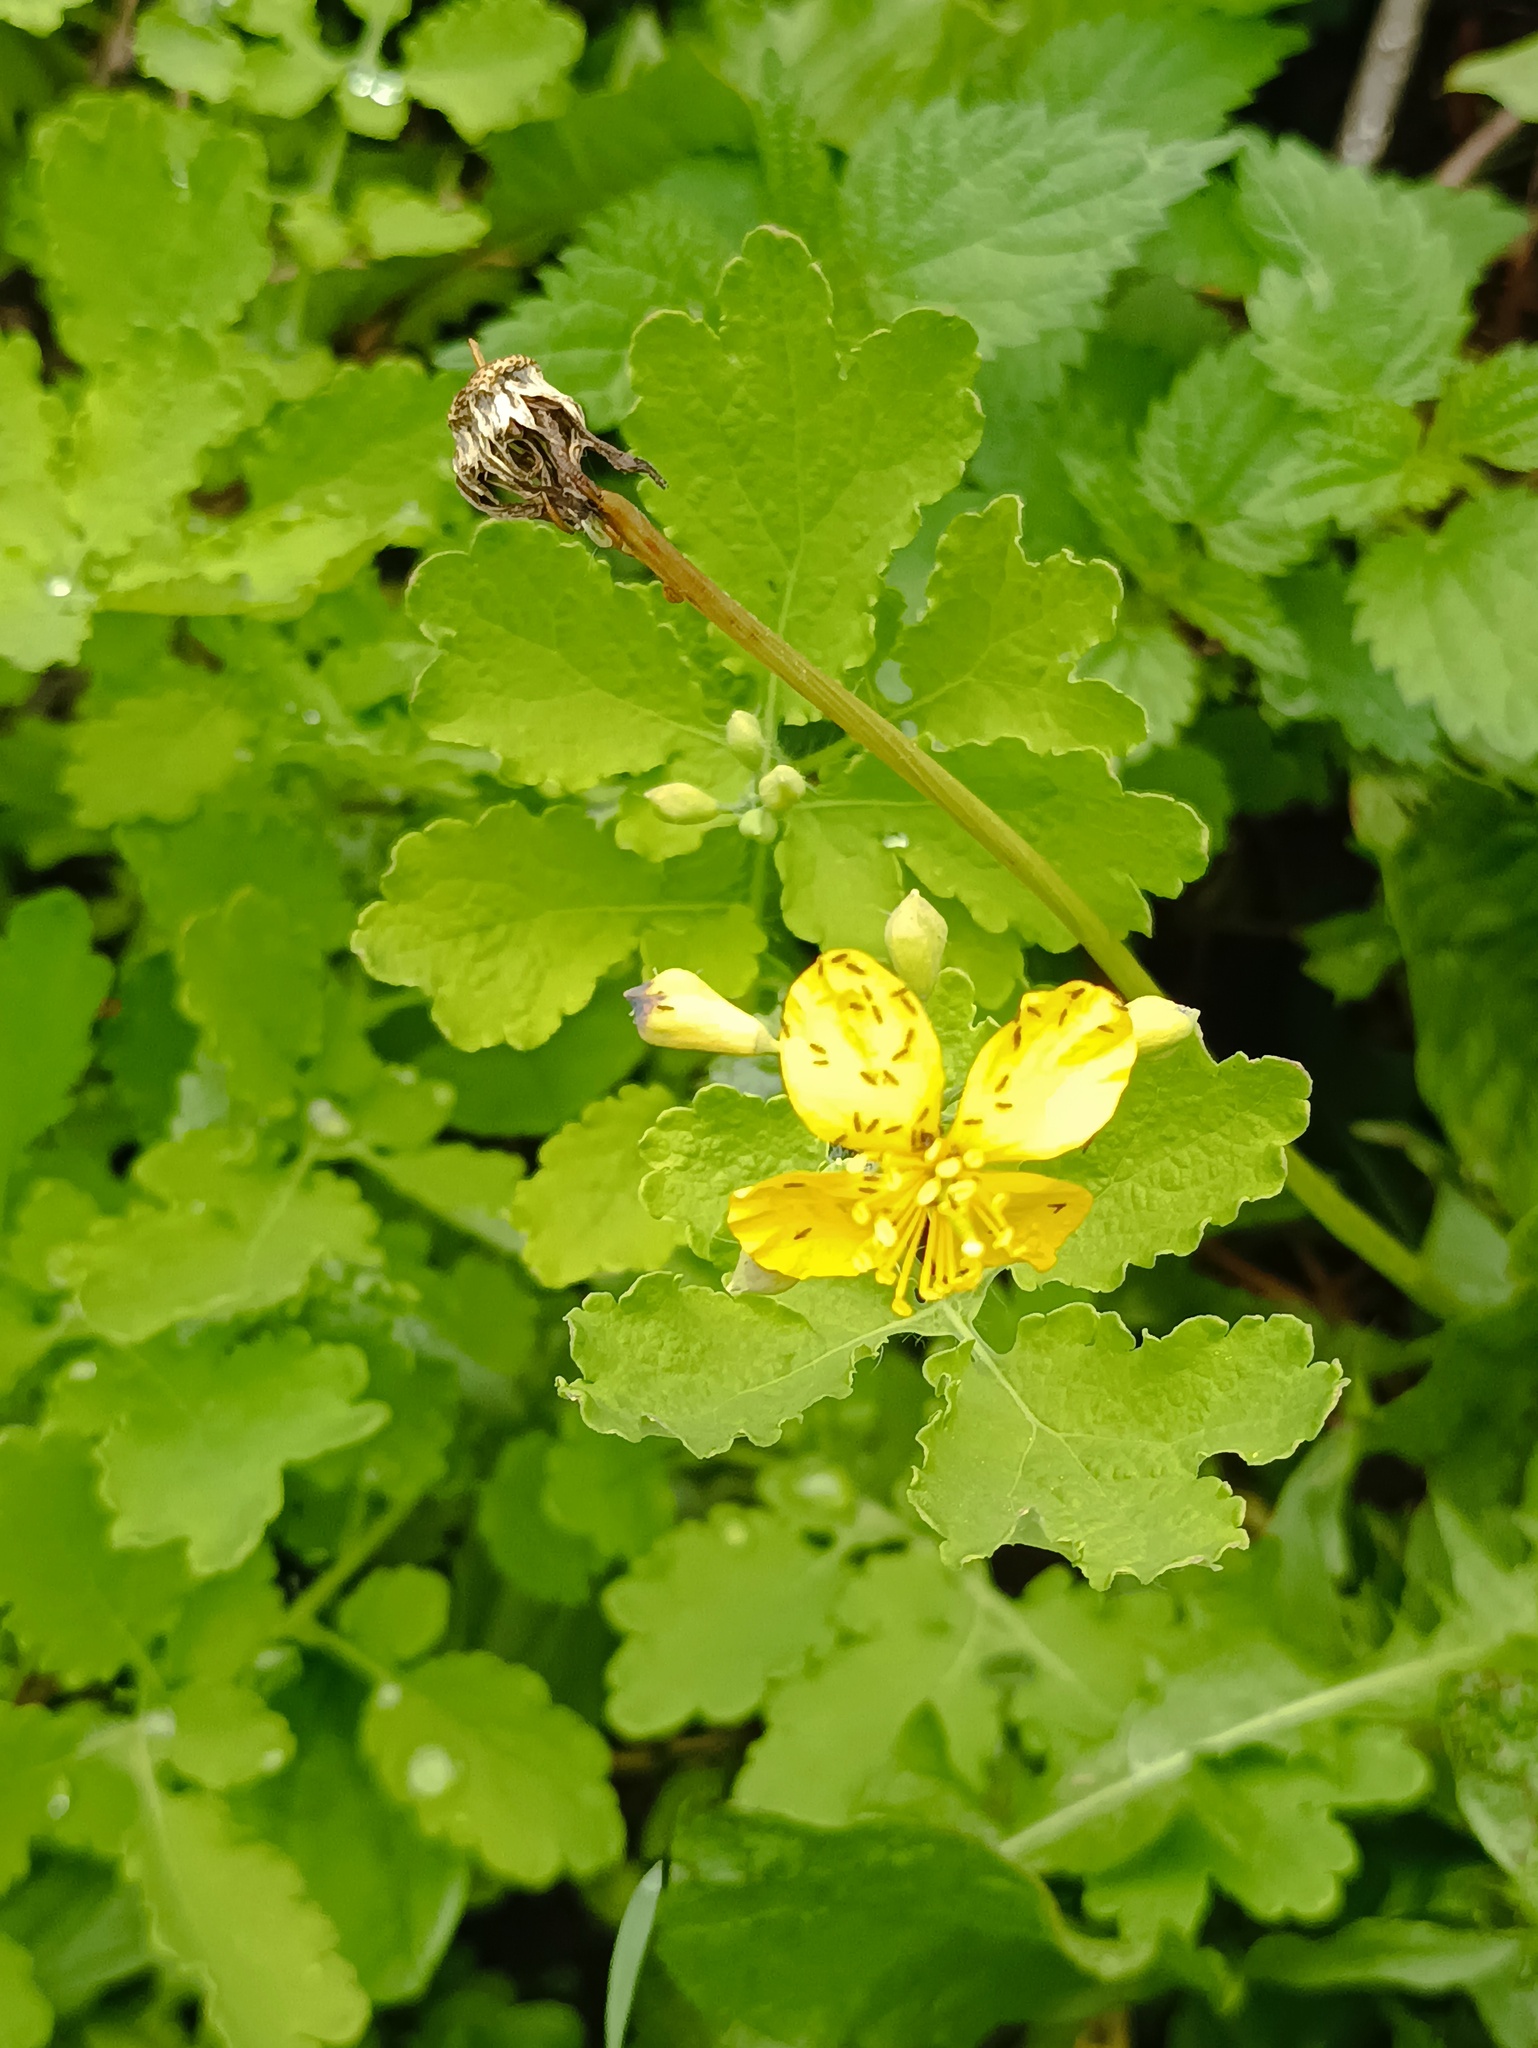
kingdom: Plantae
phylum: Tracheophyta
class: Magnoliopsida
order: Ranunculales
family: Papaveraceae
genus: Chelidonium
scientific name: Chelidonium majus
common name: Greater celandine
